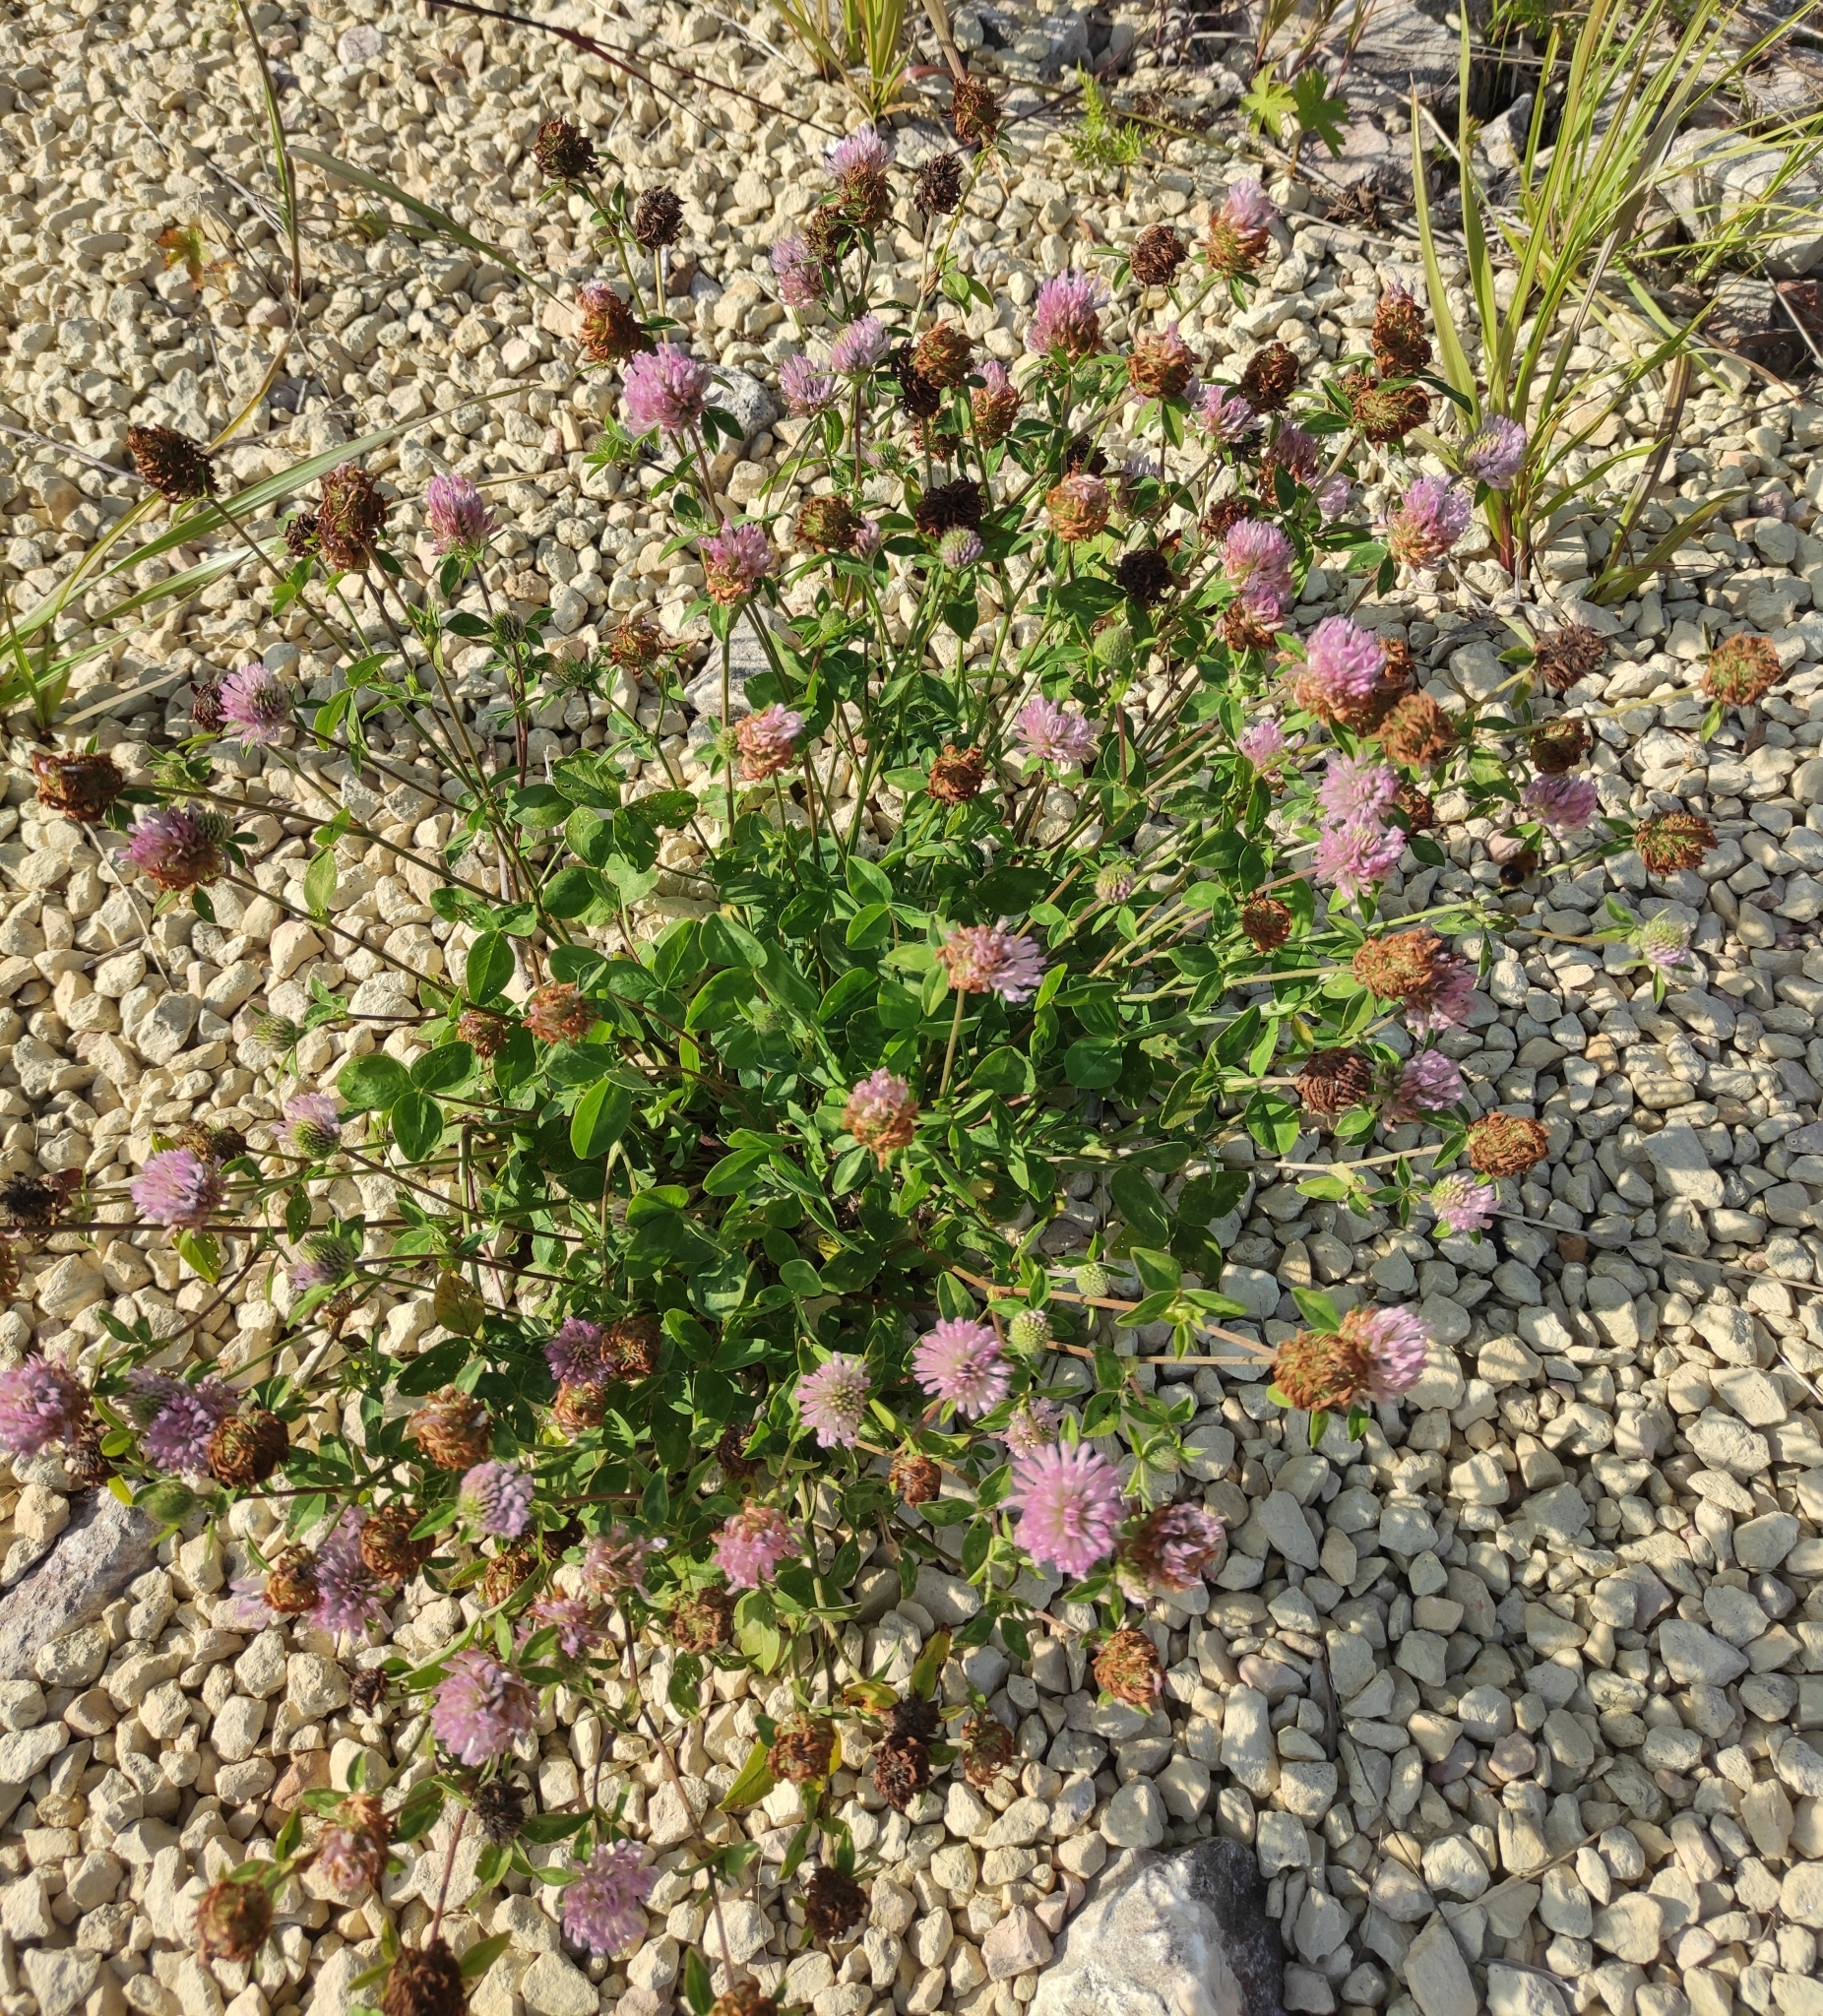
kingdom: Plantae
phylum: Tracheophyta
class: Magnoliopsida
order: Fabales
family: Fabaceae
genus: Trifolium
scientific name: Trifolium pratense
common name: Red clover
